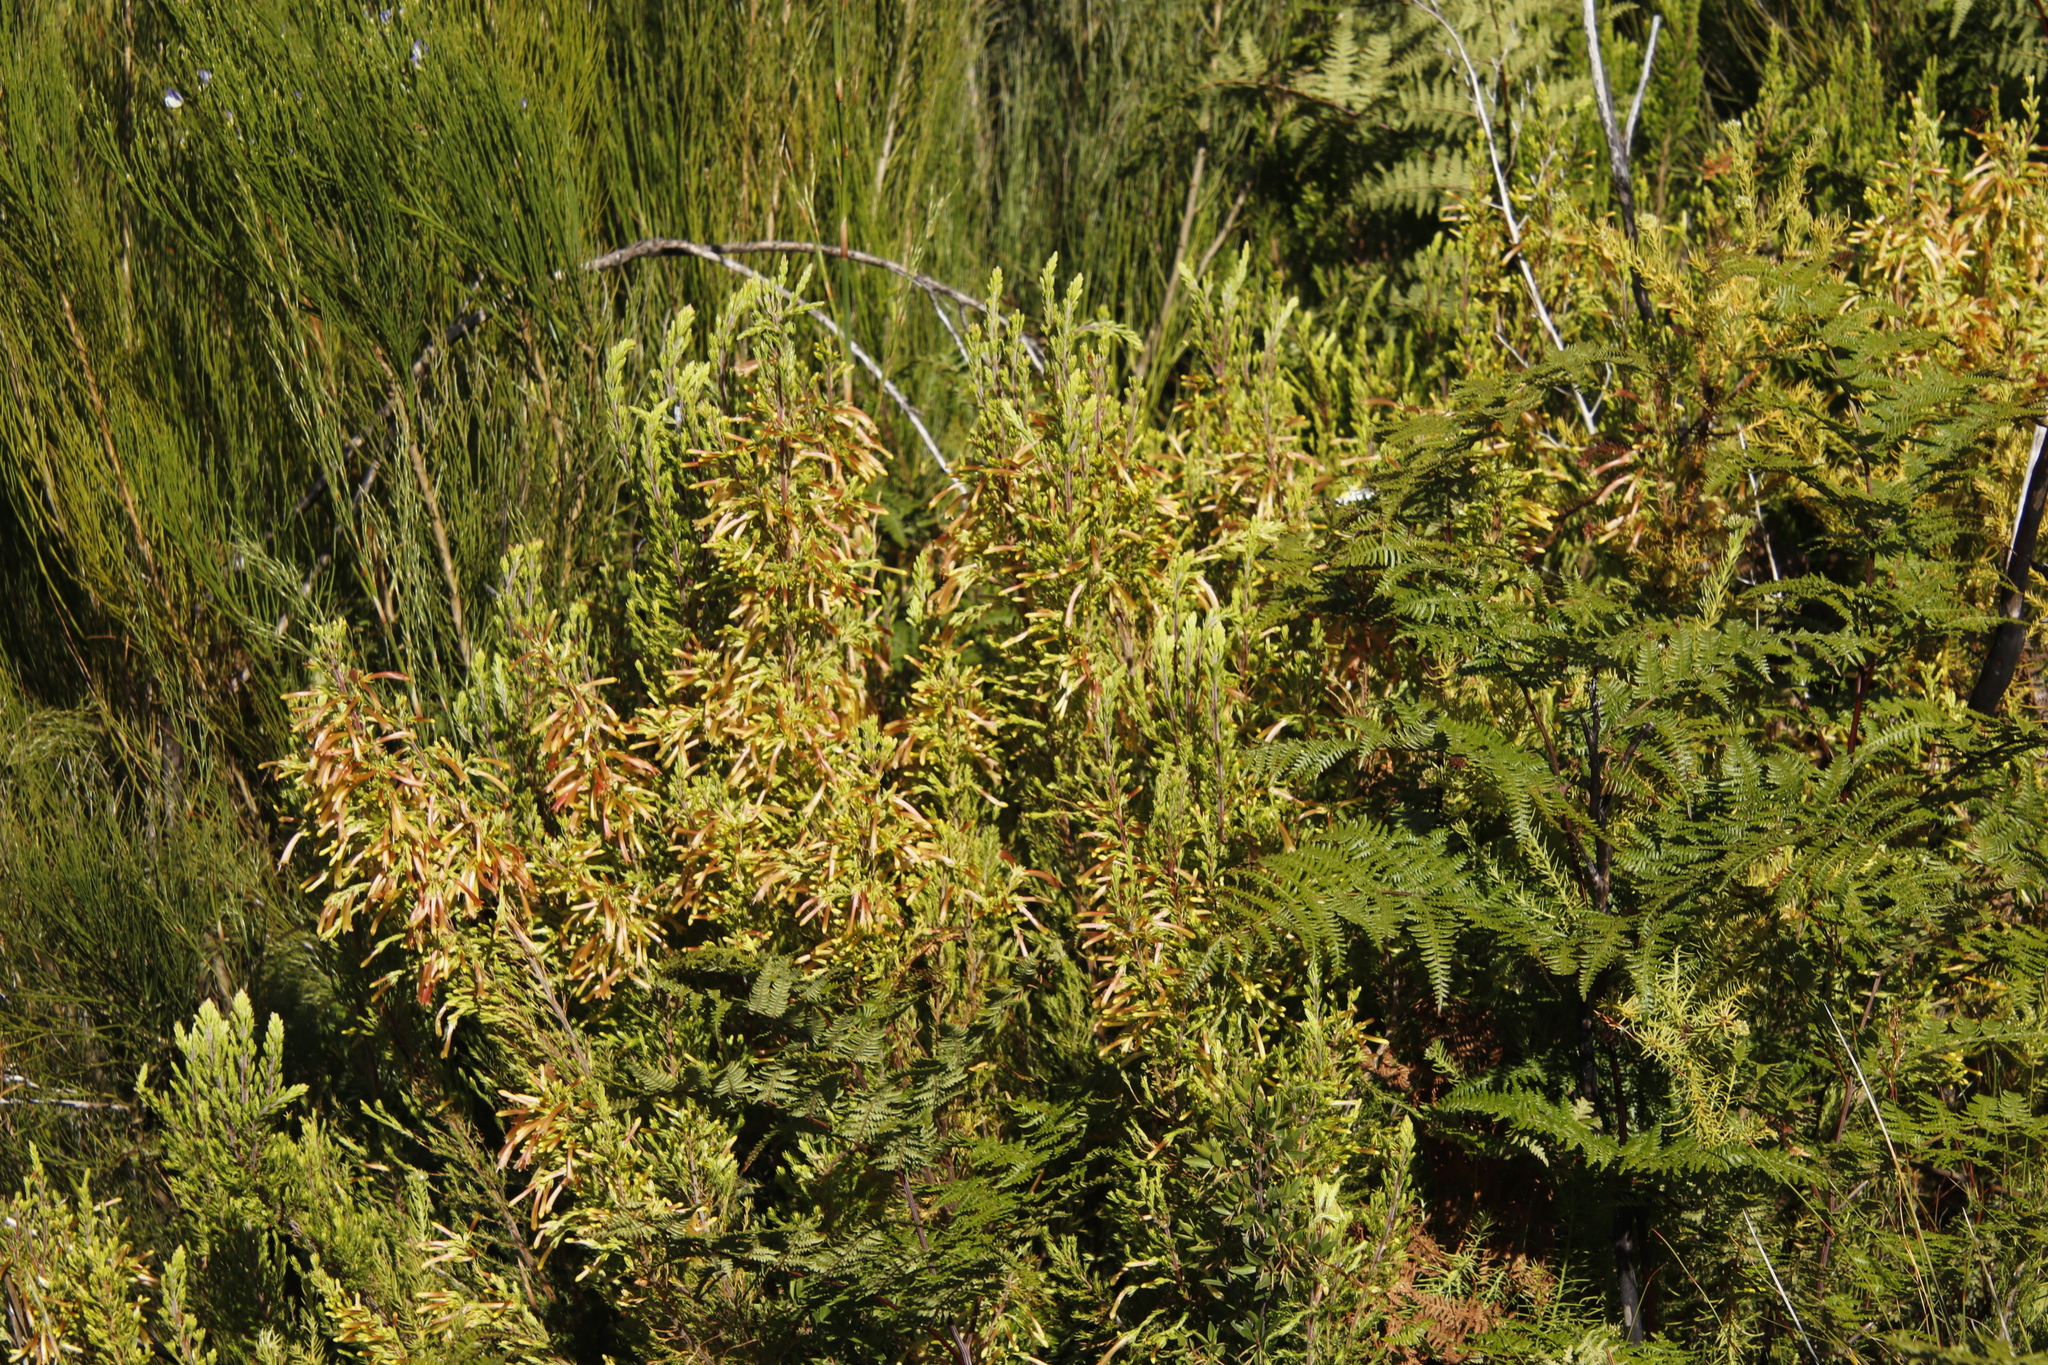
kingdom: Plantae
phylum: Tracheophyta
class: Magnoliopsida
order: Ericales
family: Ericaceae
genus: Erica
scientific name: Erica curviflora
